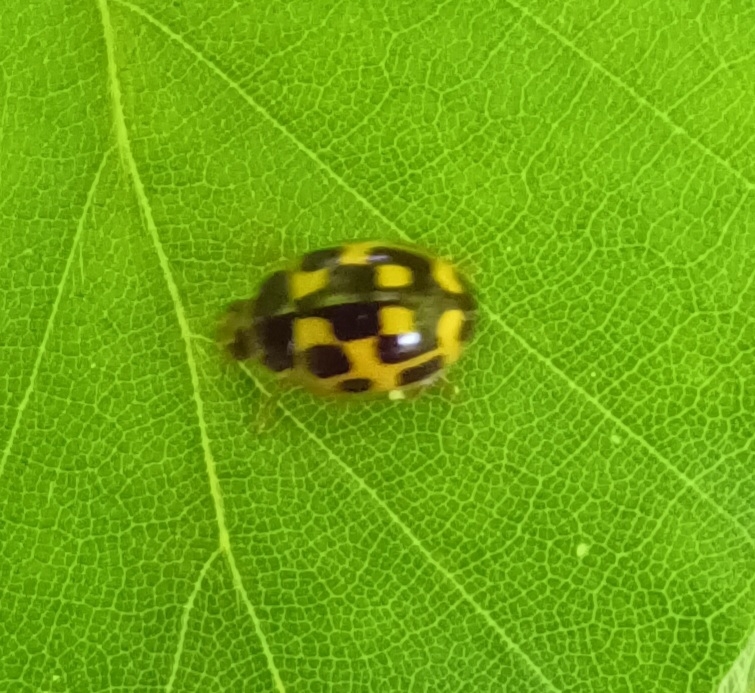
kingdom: Animalia
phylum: Arthropoda
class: Insecta
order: Coleoptera
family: Coccinellidae
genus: Propylaea
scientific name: Propylaea quatuordecimpunctata
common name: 14-spotted ladybird beetle
